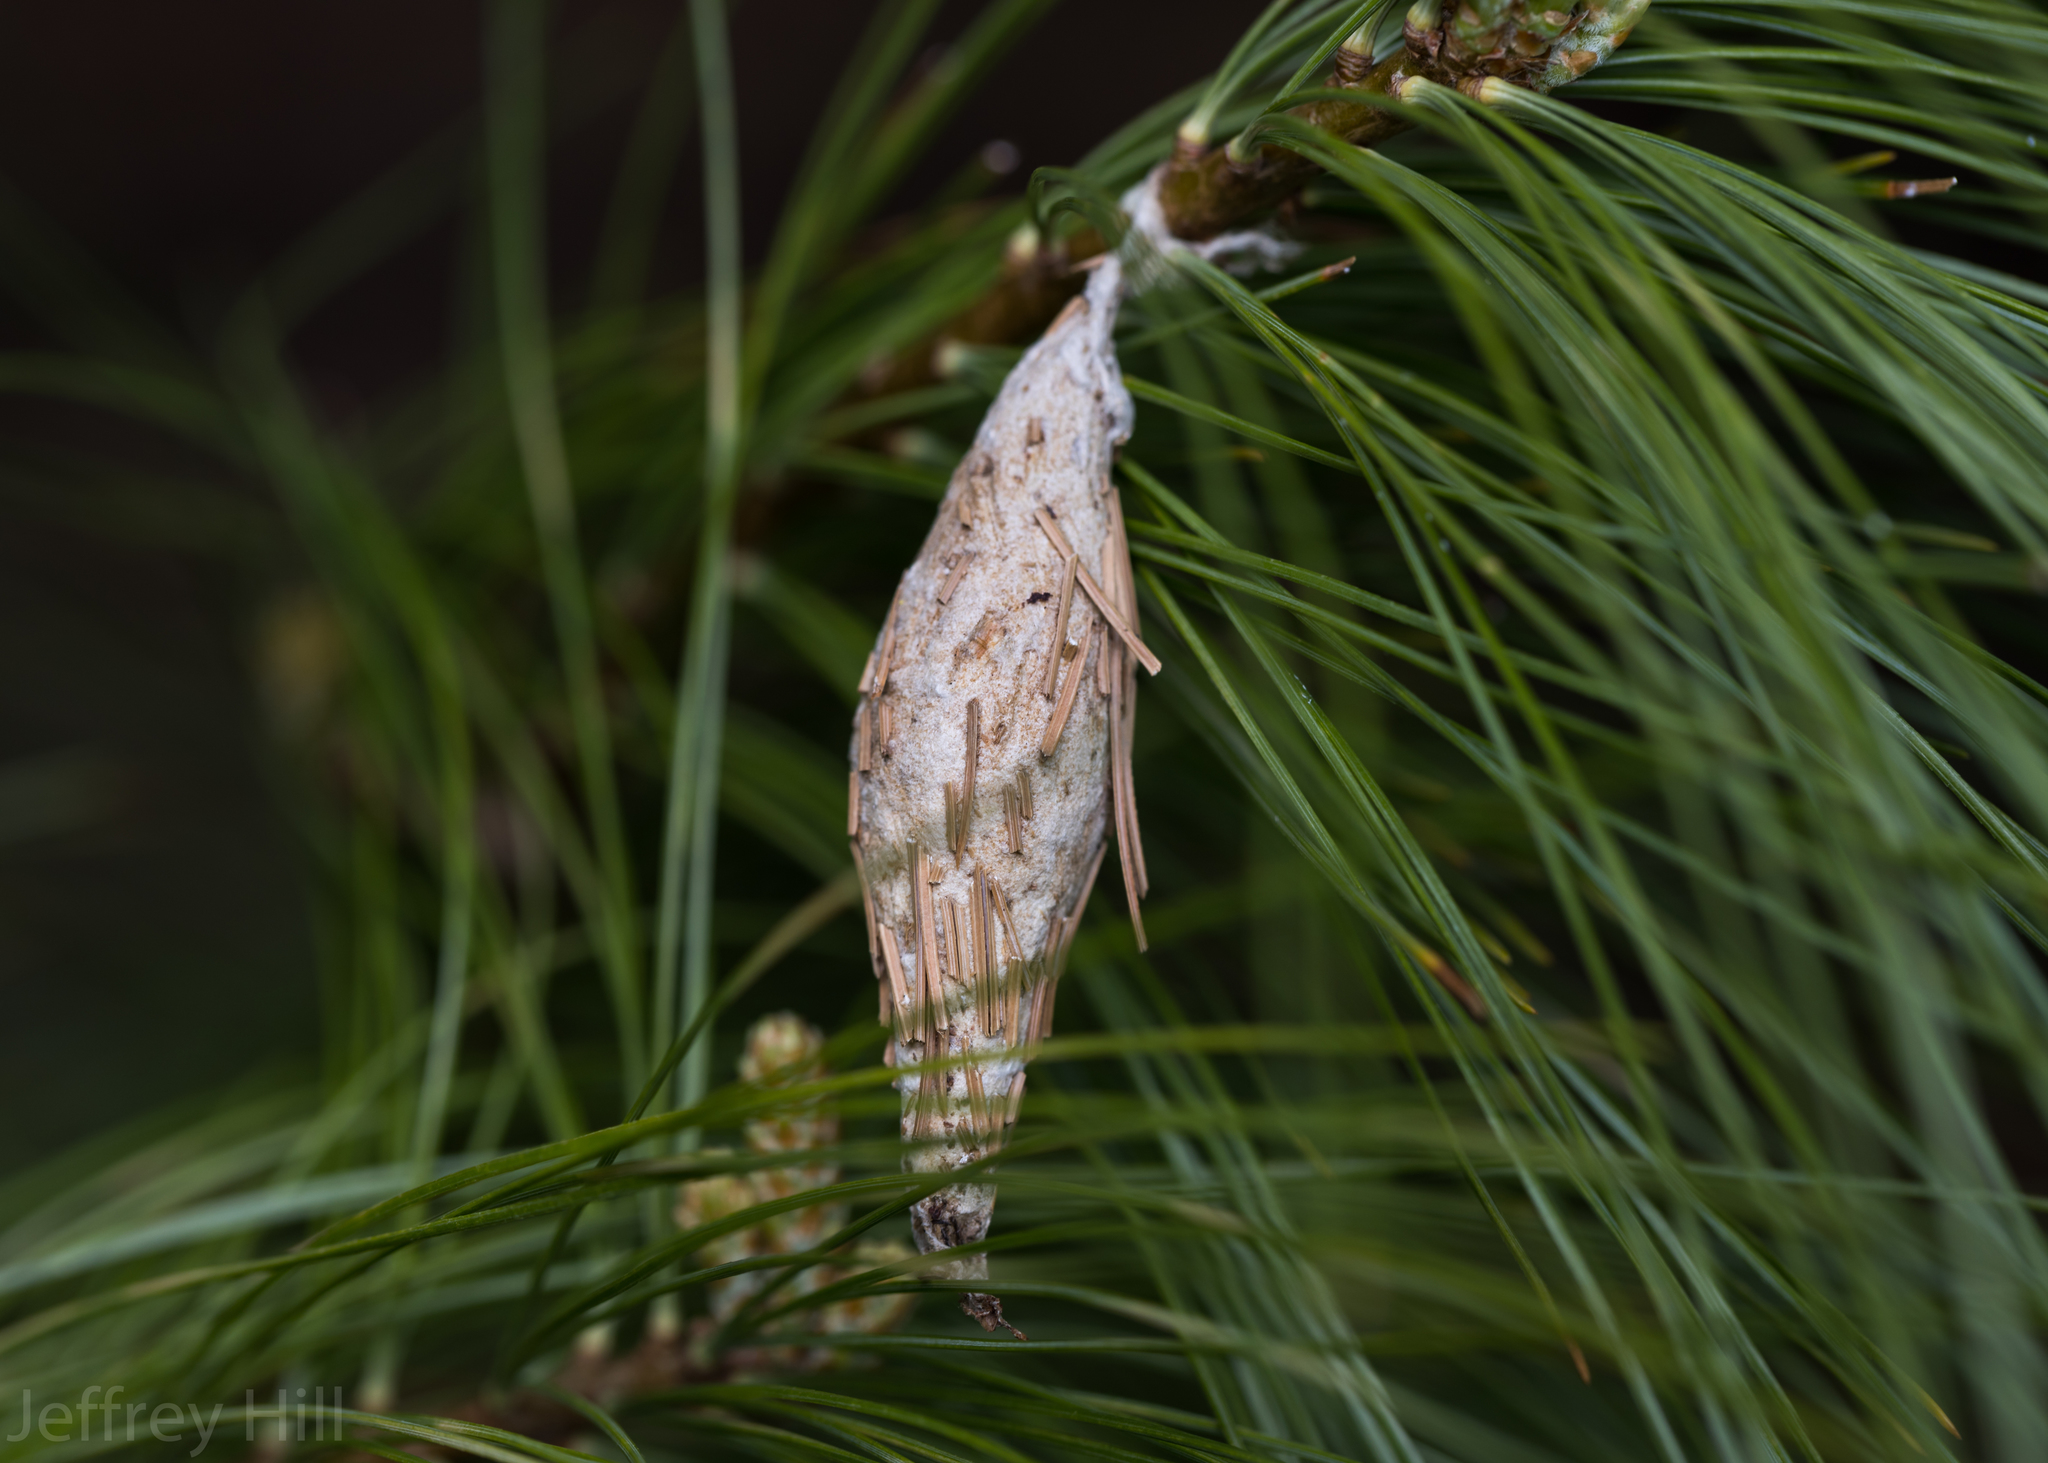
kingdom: Animalia
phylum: Arthropoda
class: Insecta
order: Lepidoptera
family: Psychidae
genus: Thyridopteryx
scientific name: Thyridopteryx ephemeraeformis
